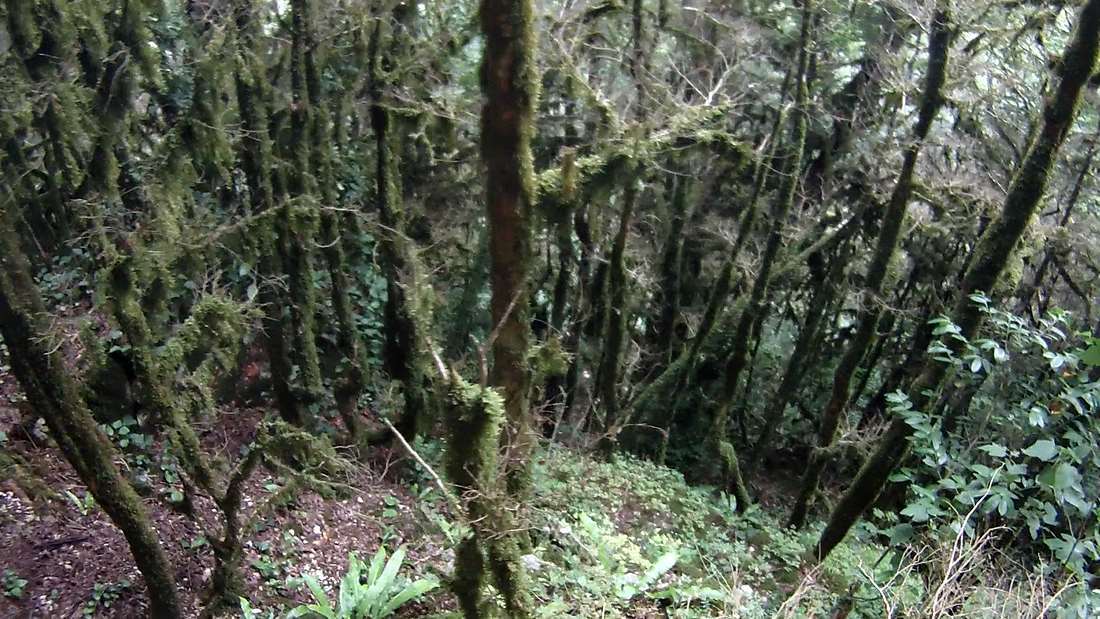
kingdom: Plantae
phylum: Tracheophyta
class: Magnoliopsida
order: Buxales
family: Buxaceae
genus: Buxus
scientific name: Buxus sempervirens
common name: Box
